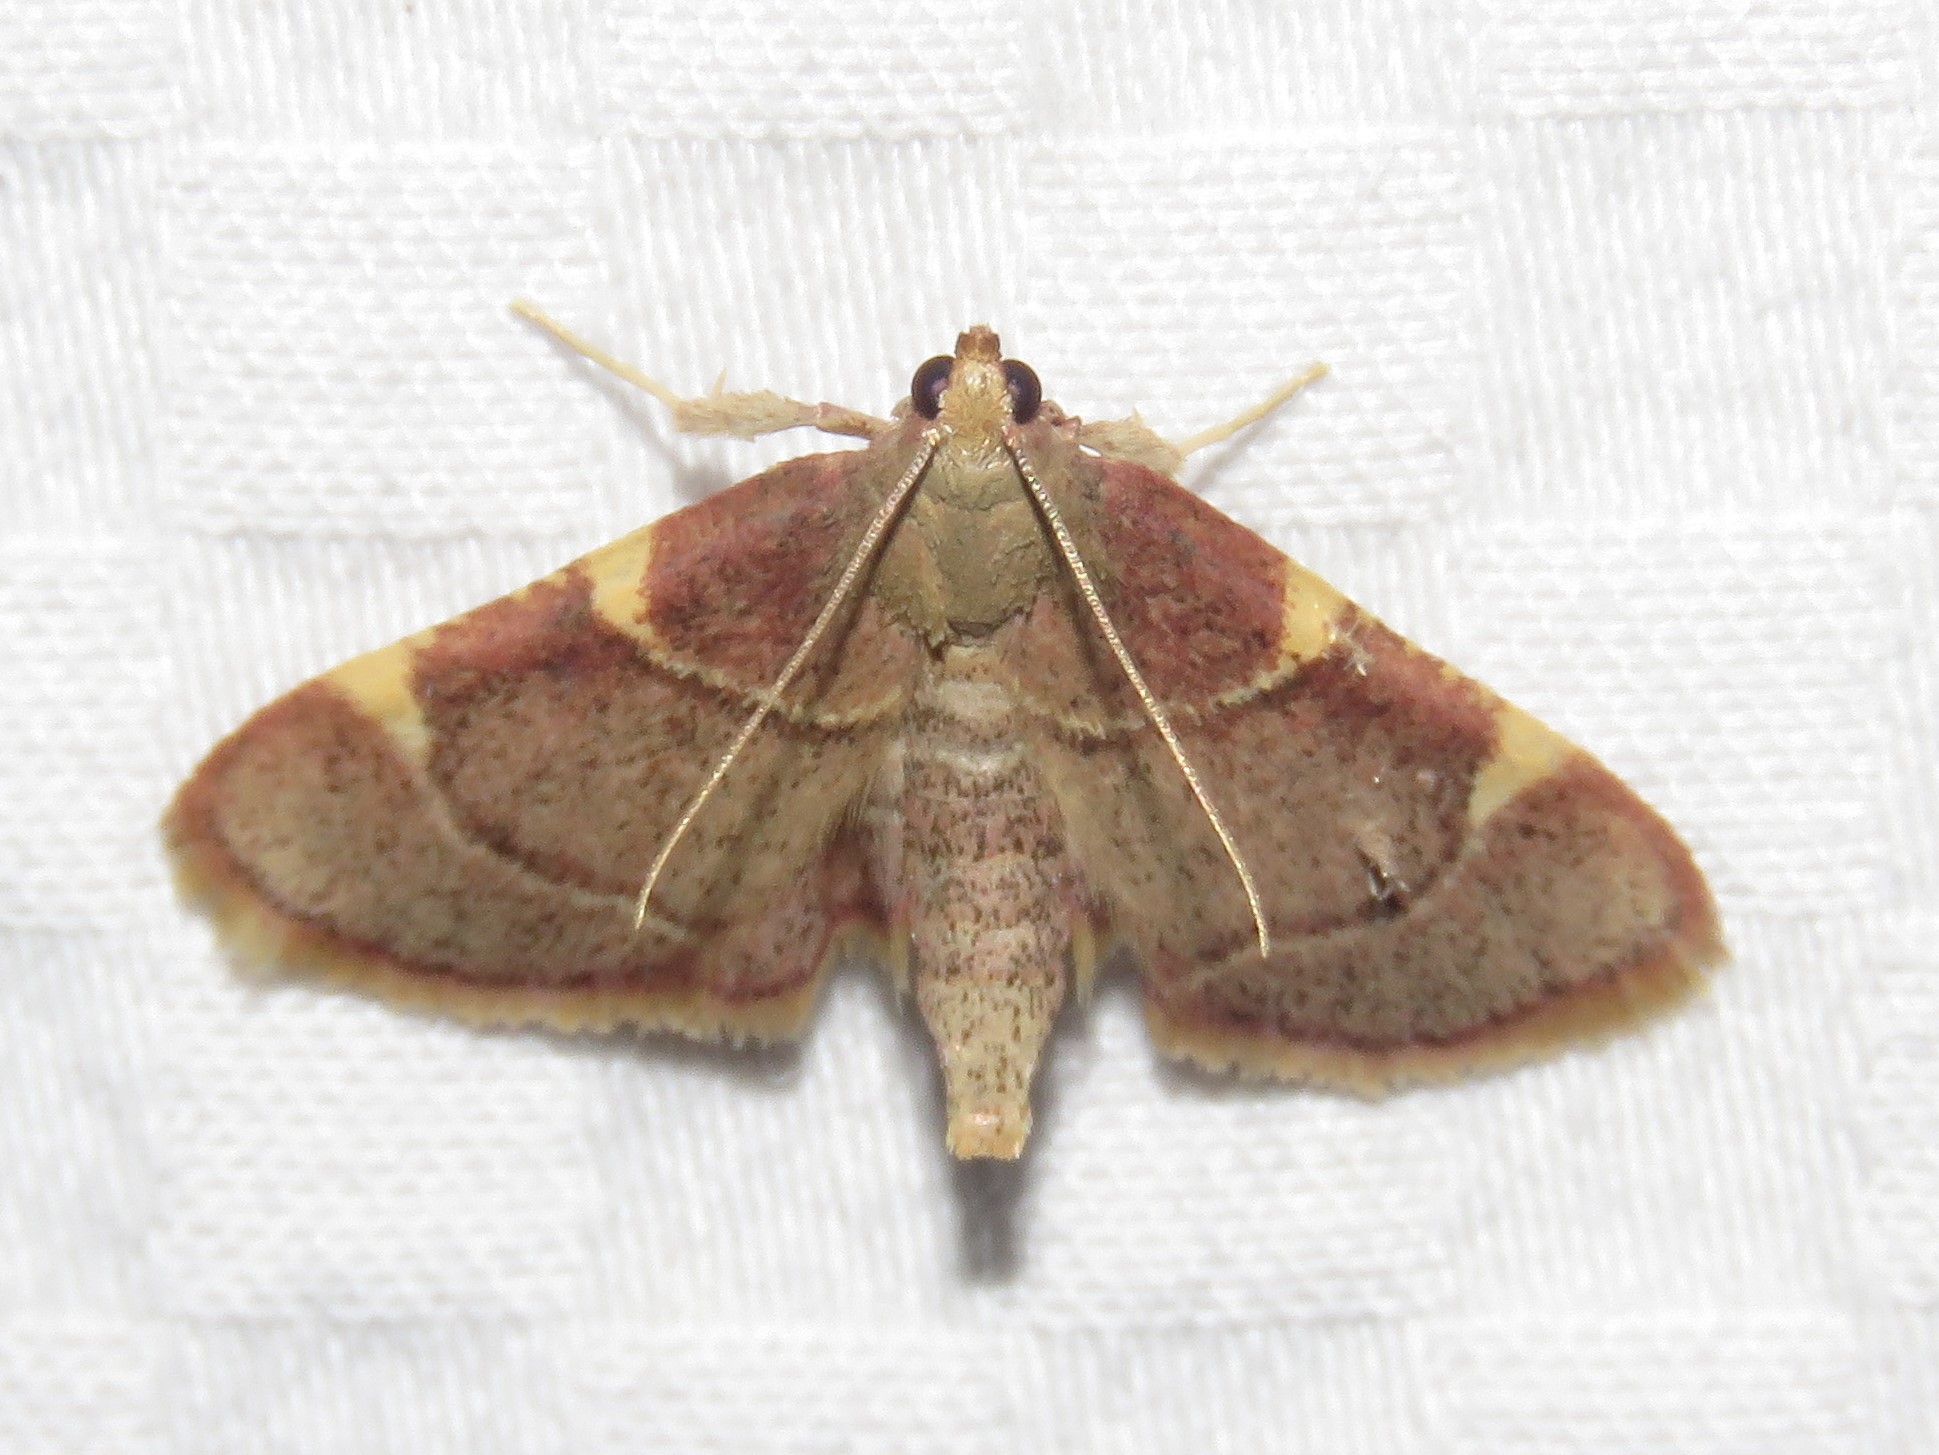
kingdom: Animalia
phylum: Arthropoda
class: Insecta
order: Lepidoptera
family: Pyralidae
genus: Hypsopygia
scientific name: Hypsopygia olinalis
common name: Yellow-fringed dolichomia moth
